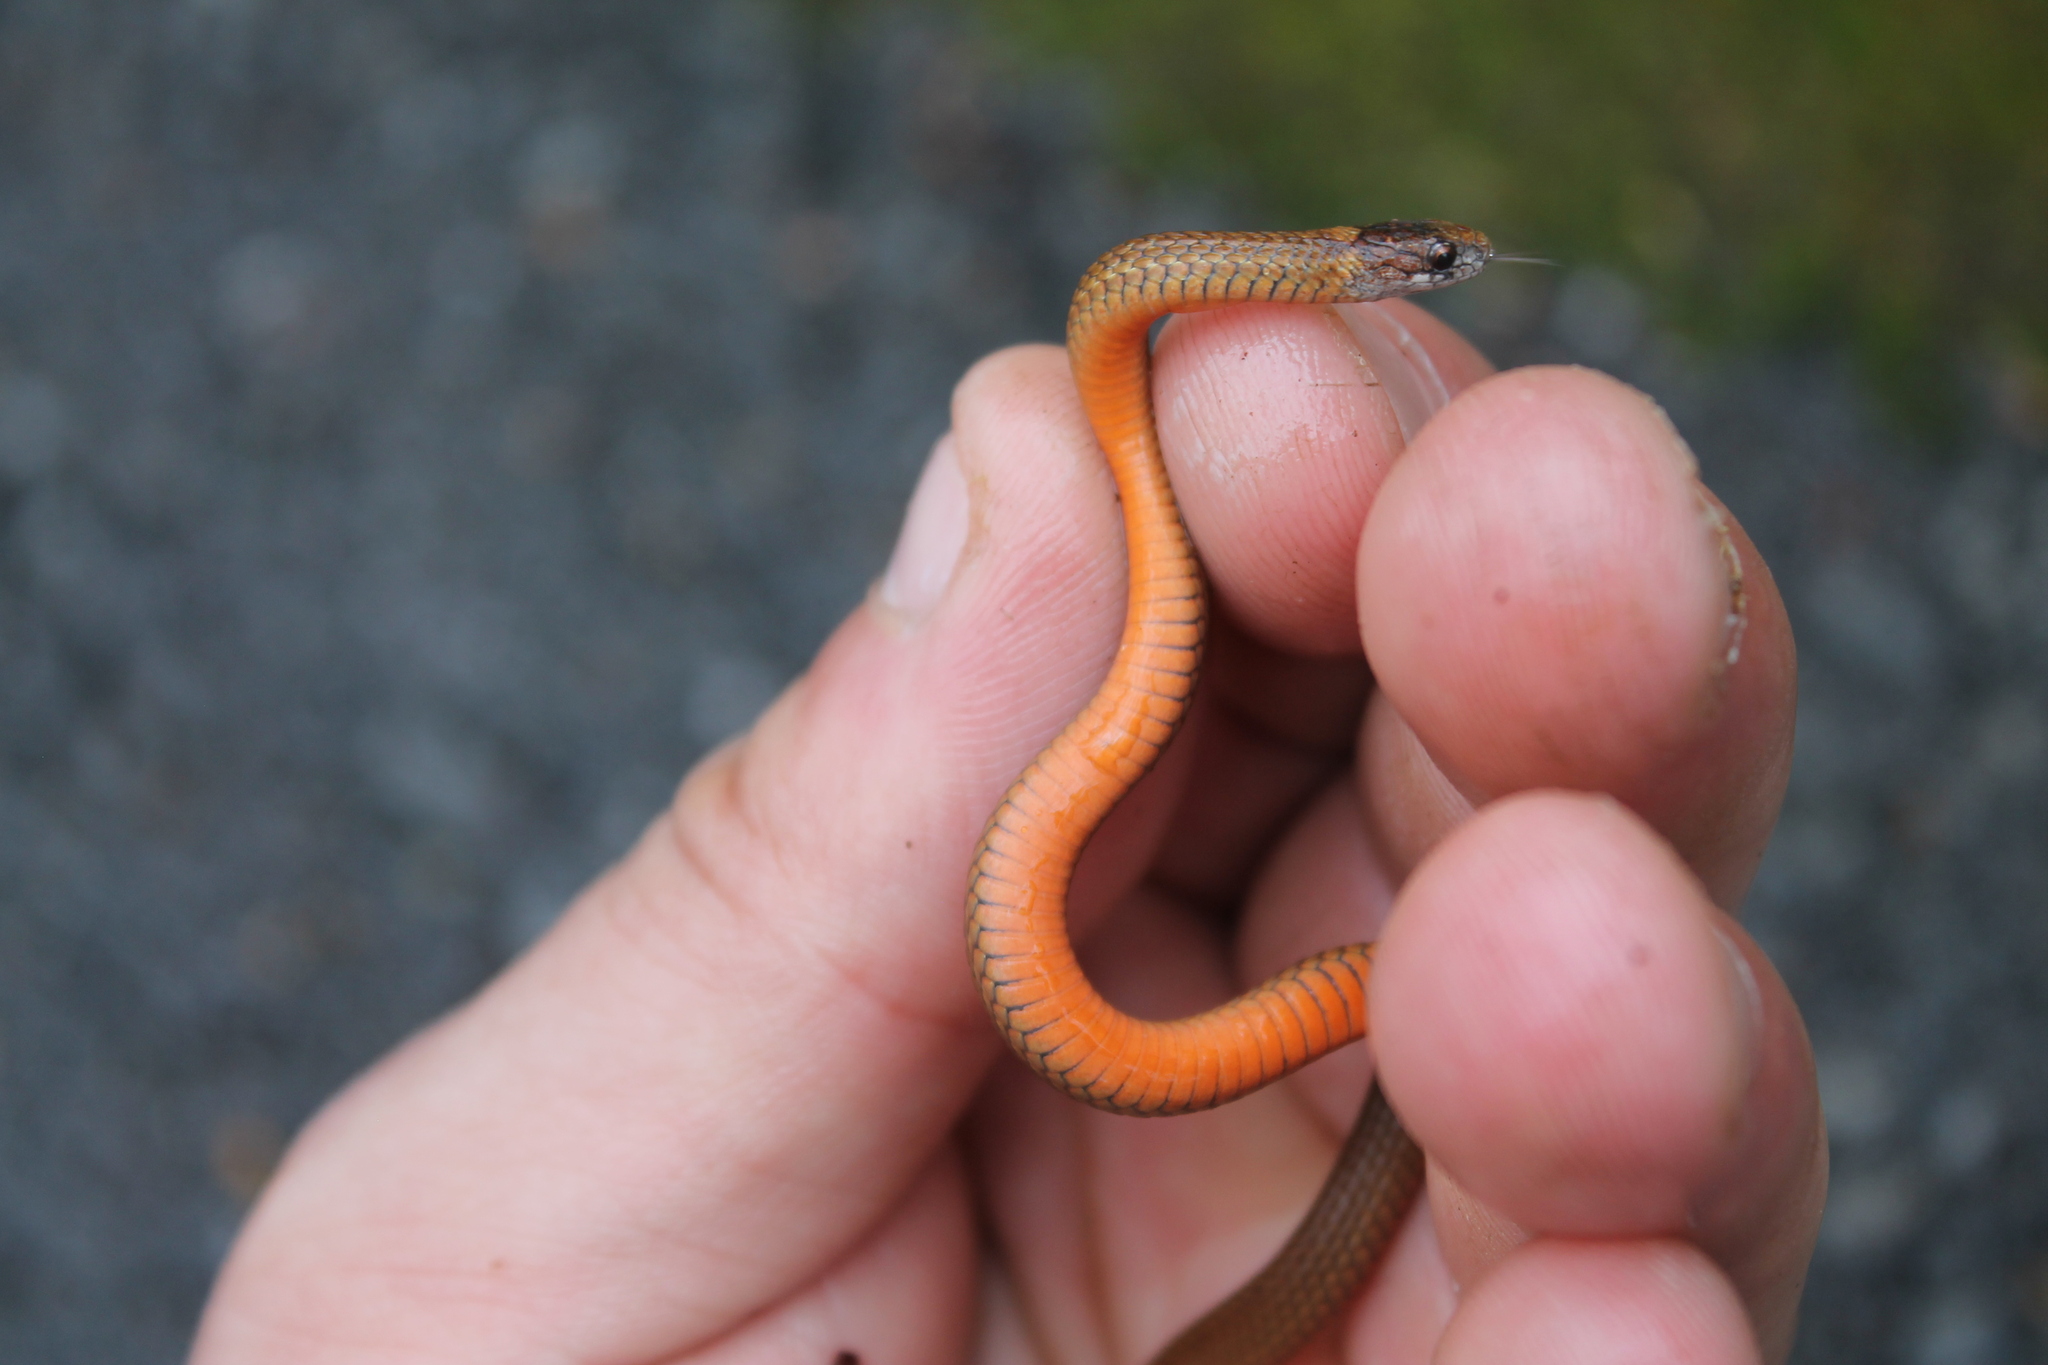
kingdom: Animalia
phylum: Chordata
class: Squamata
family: Colubridae
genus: Storeria
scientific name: Storeria occipitomaculata
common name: Redbelly snake
